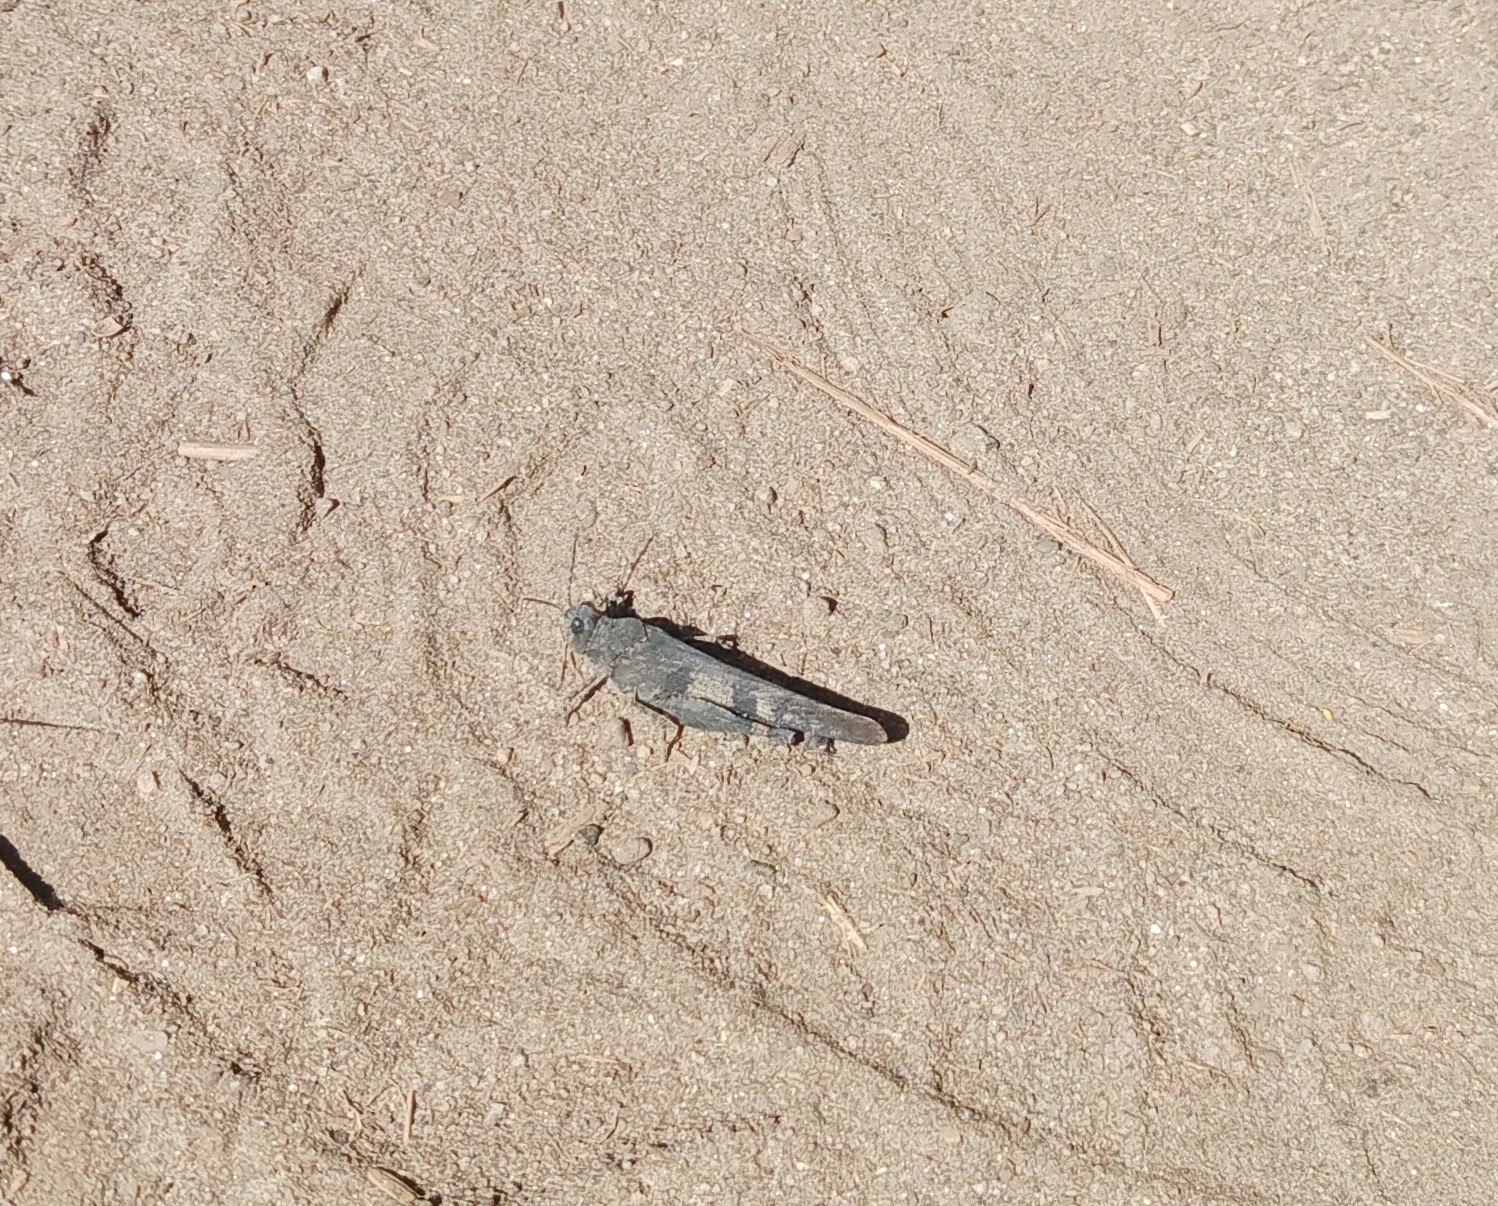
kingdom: Animalia
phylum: Arthropoda
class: Insecta
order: Orthoptera
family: Acrididae
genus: Trimerotropis
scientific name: Trimerotropis fontana
